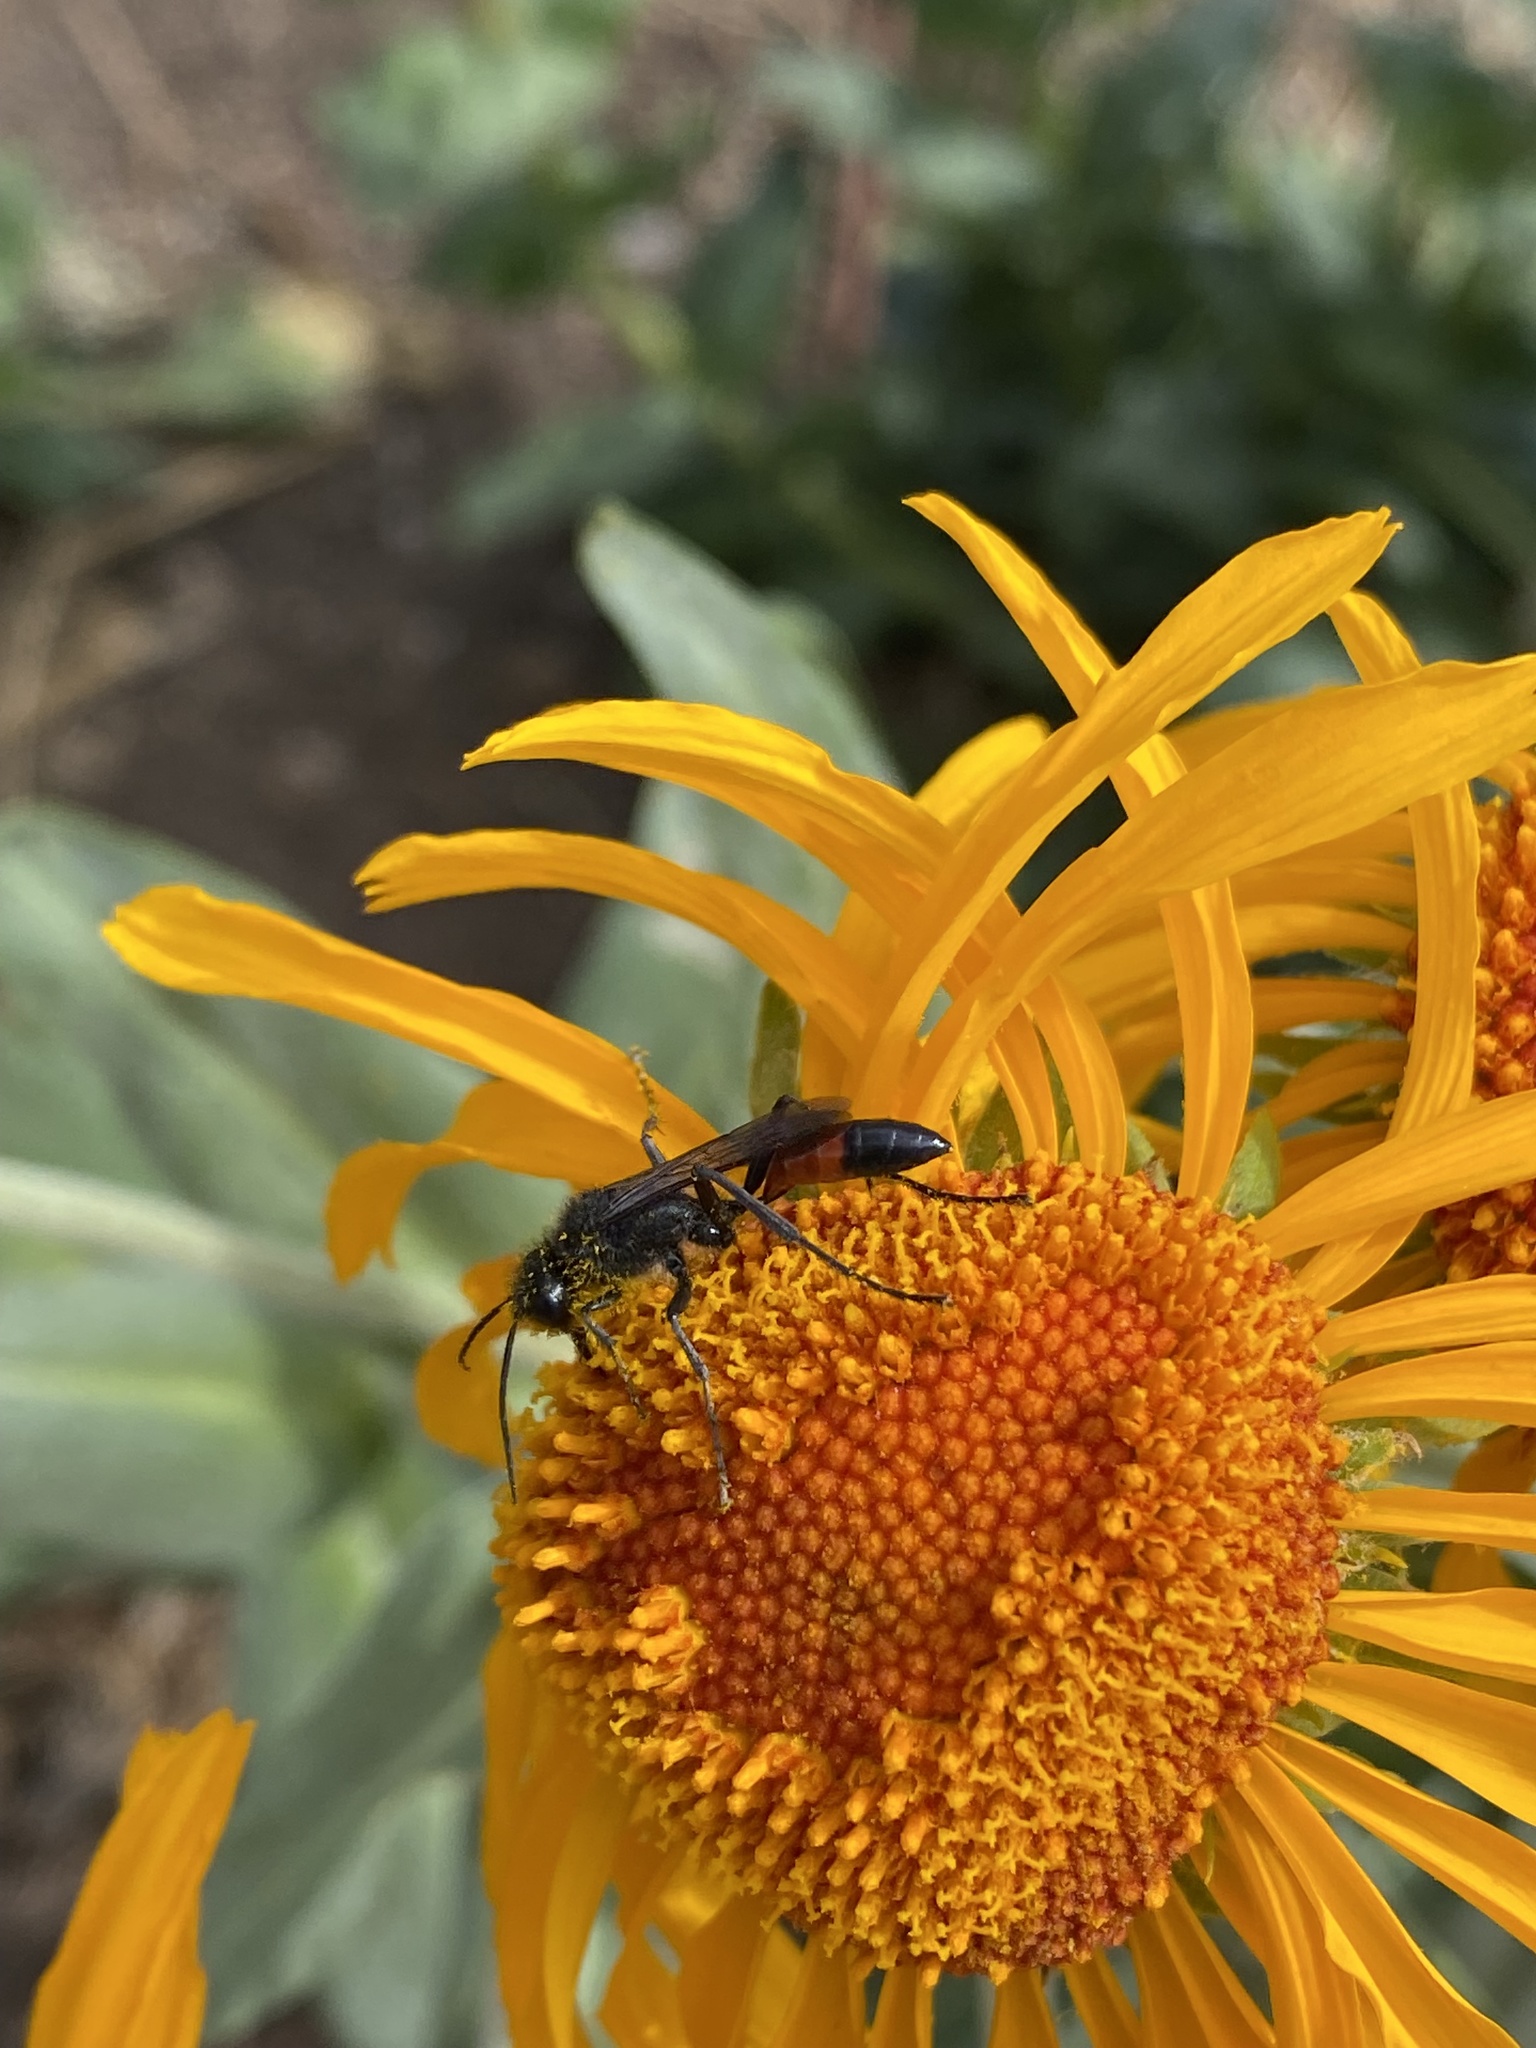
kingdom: Animalia
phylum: Arthropoda
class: Insecta
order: Hymenoptera
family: Sphecidae
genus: Podalonia
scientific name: Podalonia
